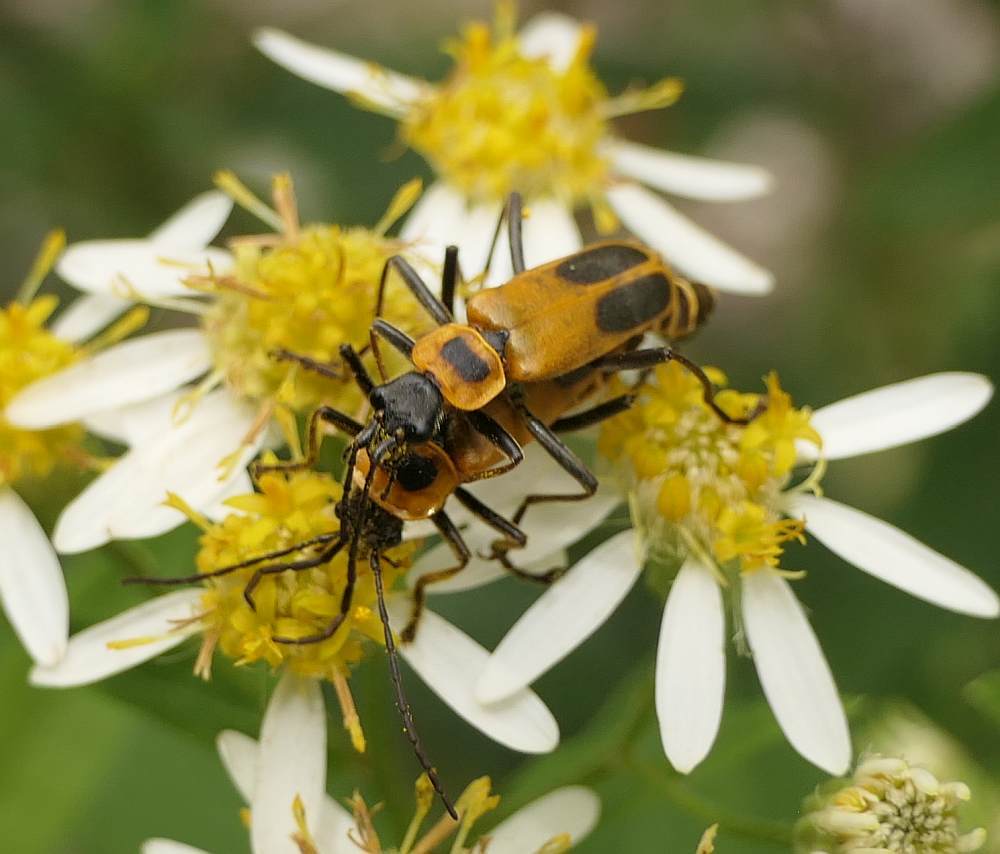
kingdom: Animalia
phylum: Arthropoda
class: Insecta
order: Coleoptera
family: Cantharidae
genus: Chauliognathus
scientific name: Chauliognathus pensylvanicus
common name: Goldenrod soldier beetle
